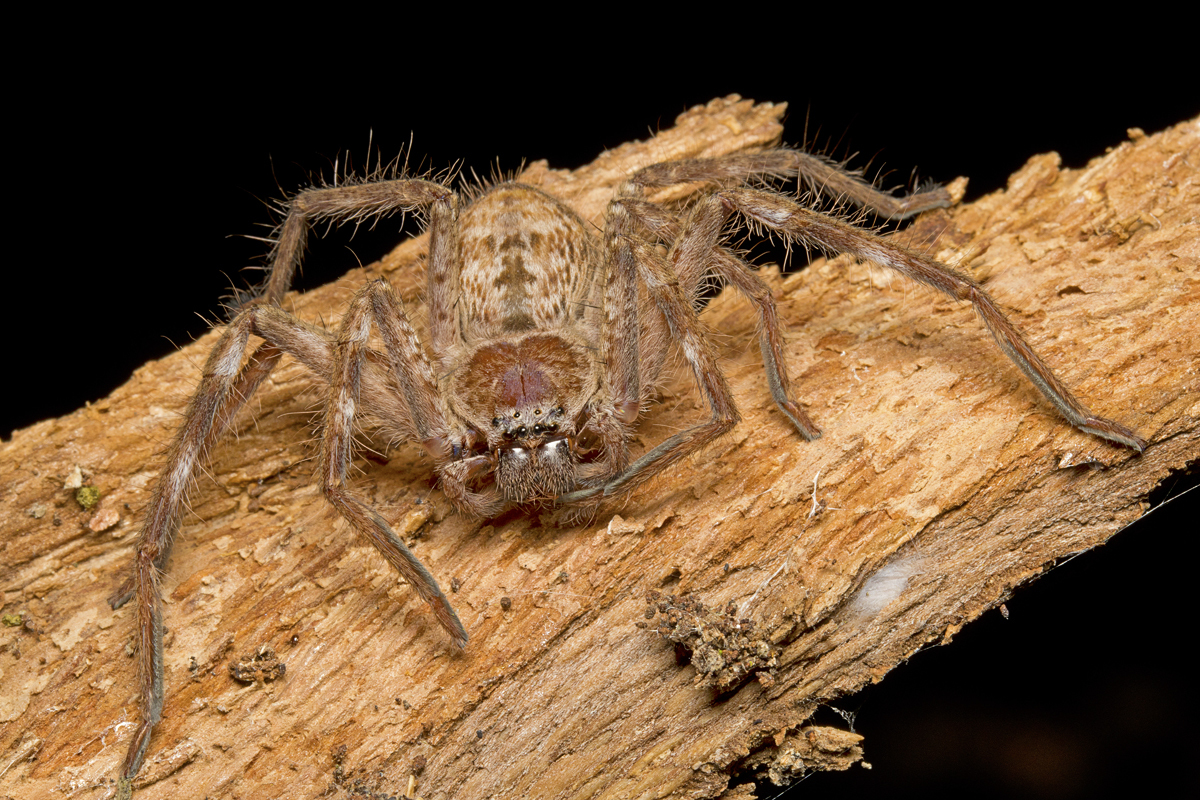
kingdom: Animalia
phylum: Arthropoda
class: Arachnida
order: Araneae
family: Sparassidae
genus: Holconia
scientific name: Holconia immanis
